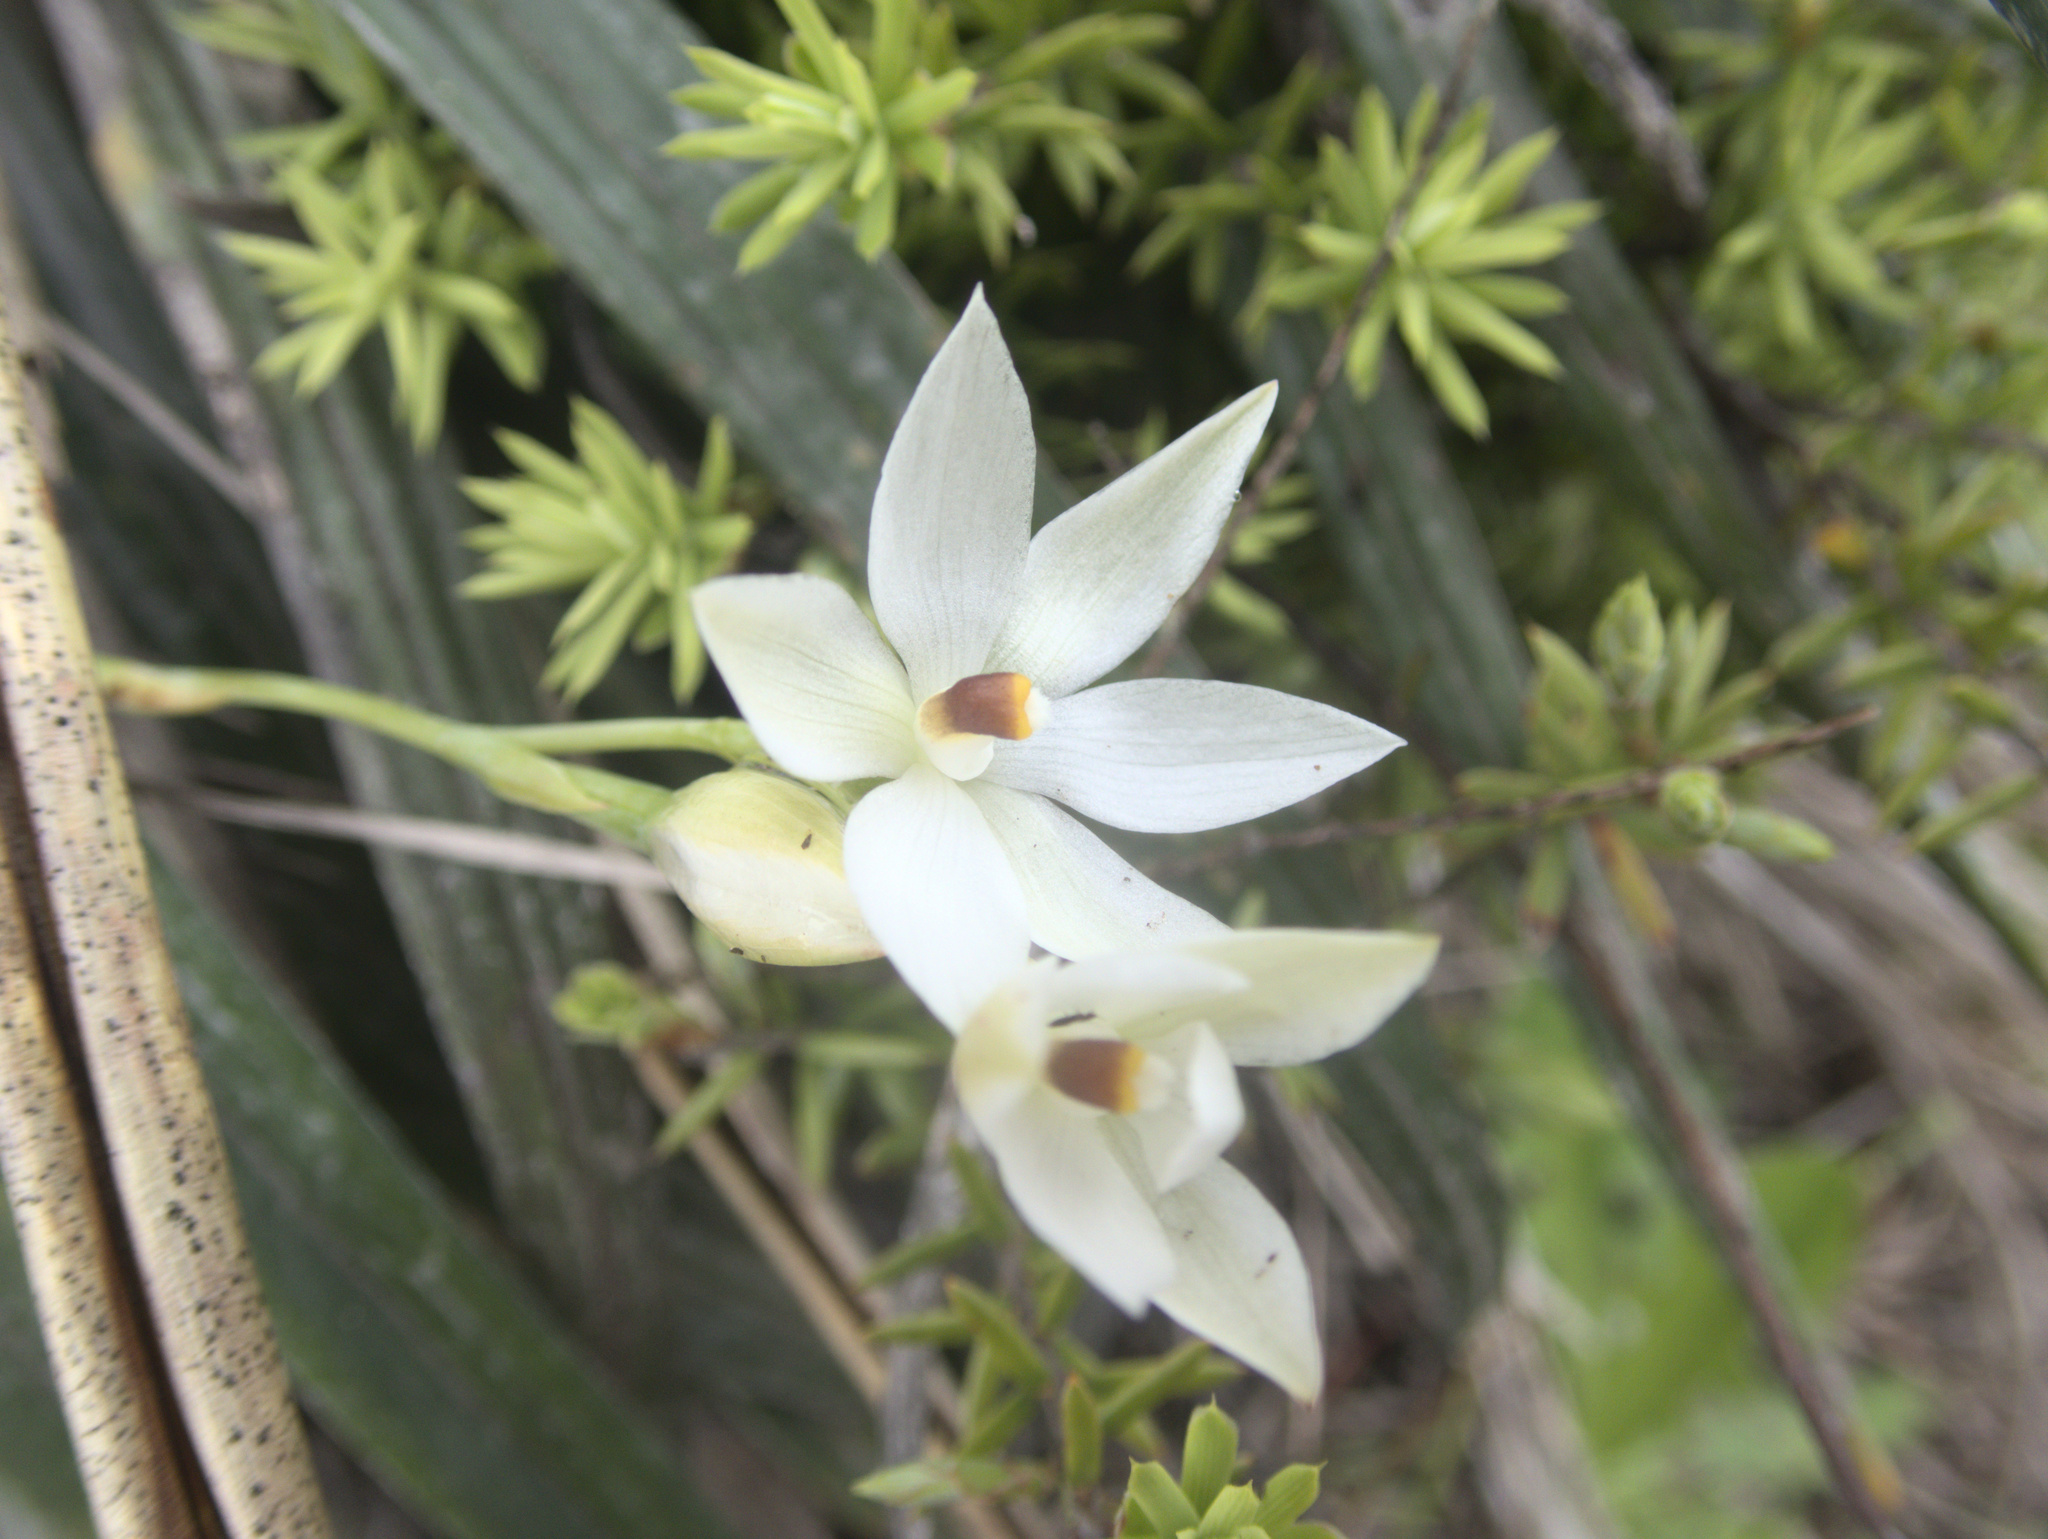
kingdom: Plantae
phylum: Tracheophyta
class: Liliopsida
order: Asparagales
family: Orchidaceae
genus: Thelymitra
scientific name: Thelymitra longifolia
